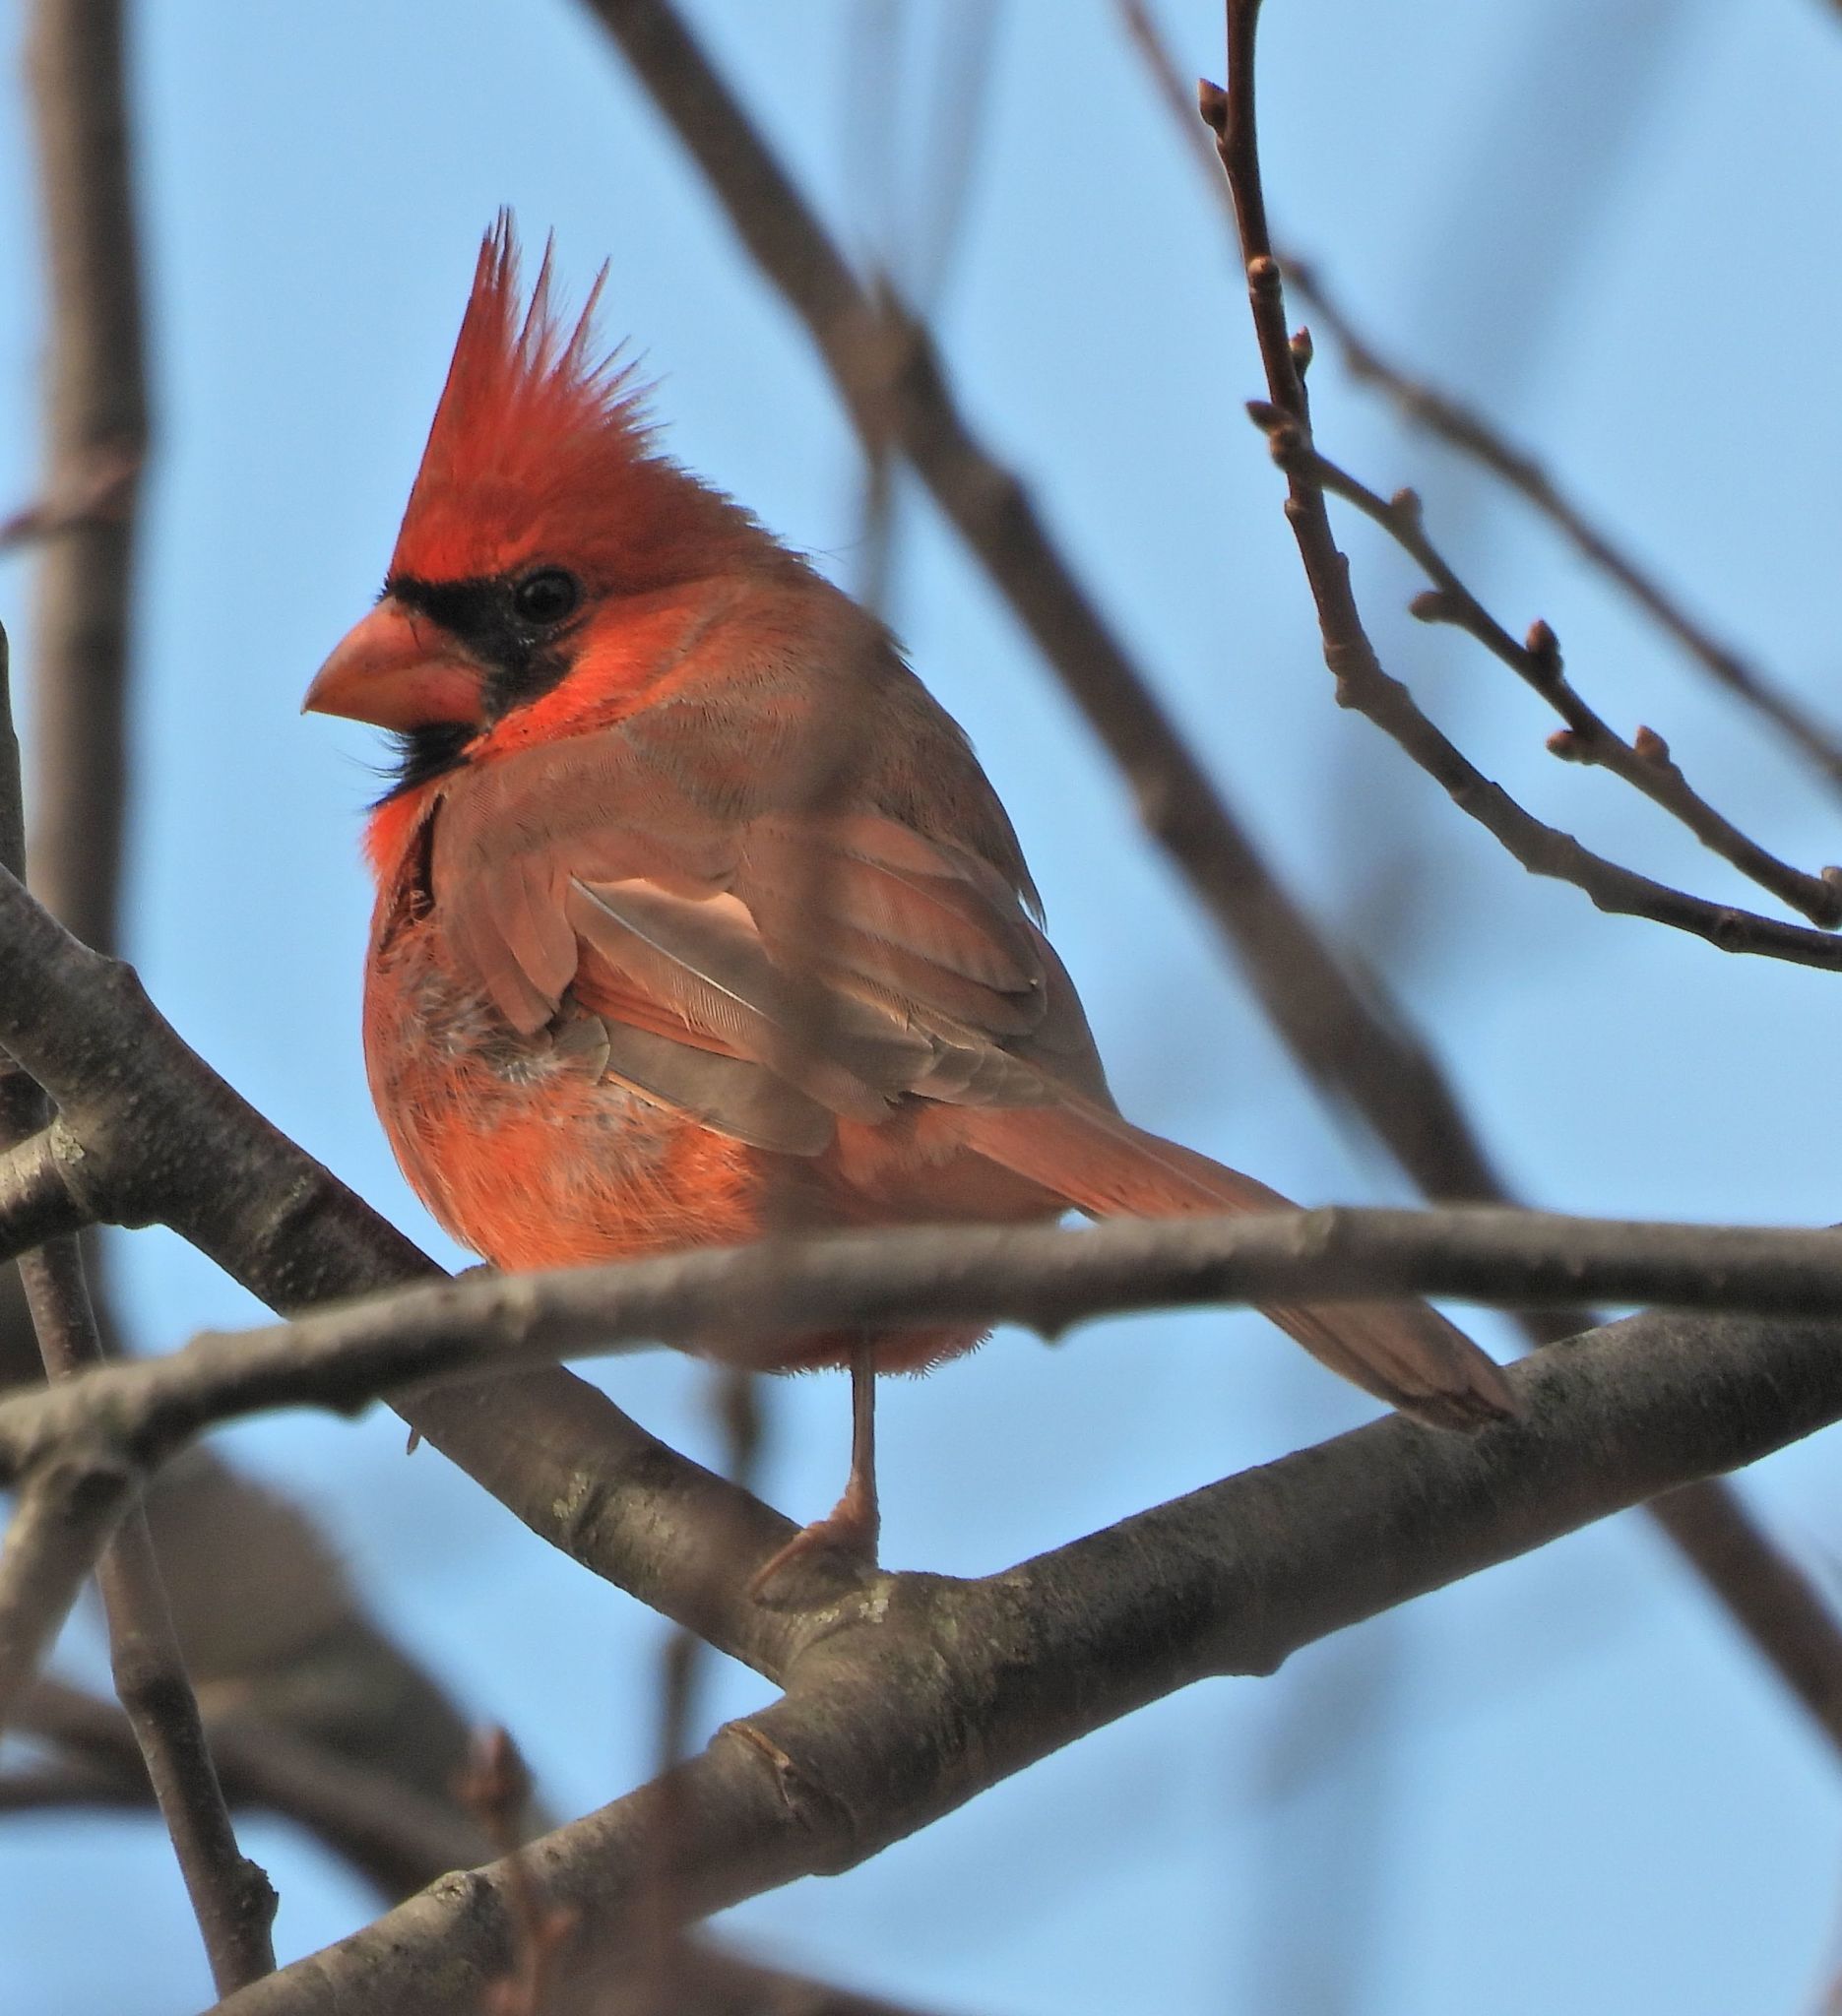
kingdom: Animalia
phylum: Chordata
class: Aves
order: Passeriformes
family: Cardinalidae
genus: Cardinalis
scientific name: Cardinalis cardinalis
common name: Northern cardinal
